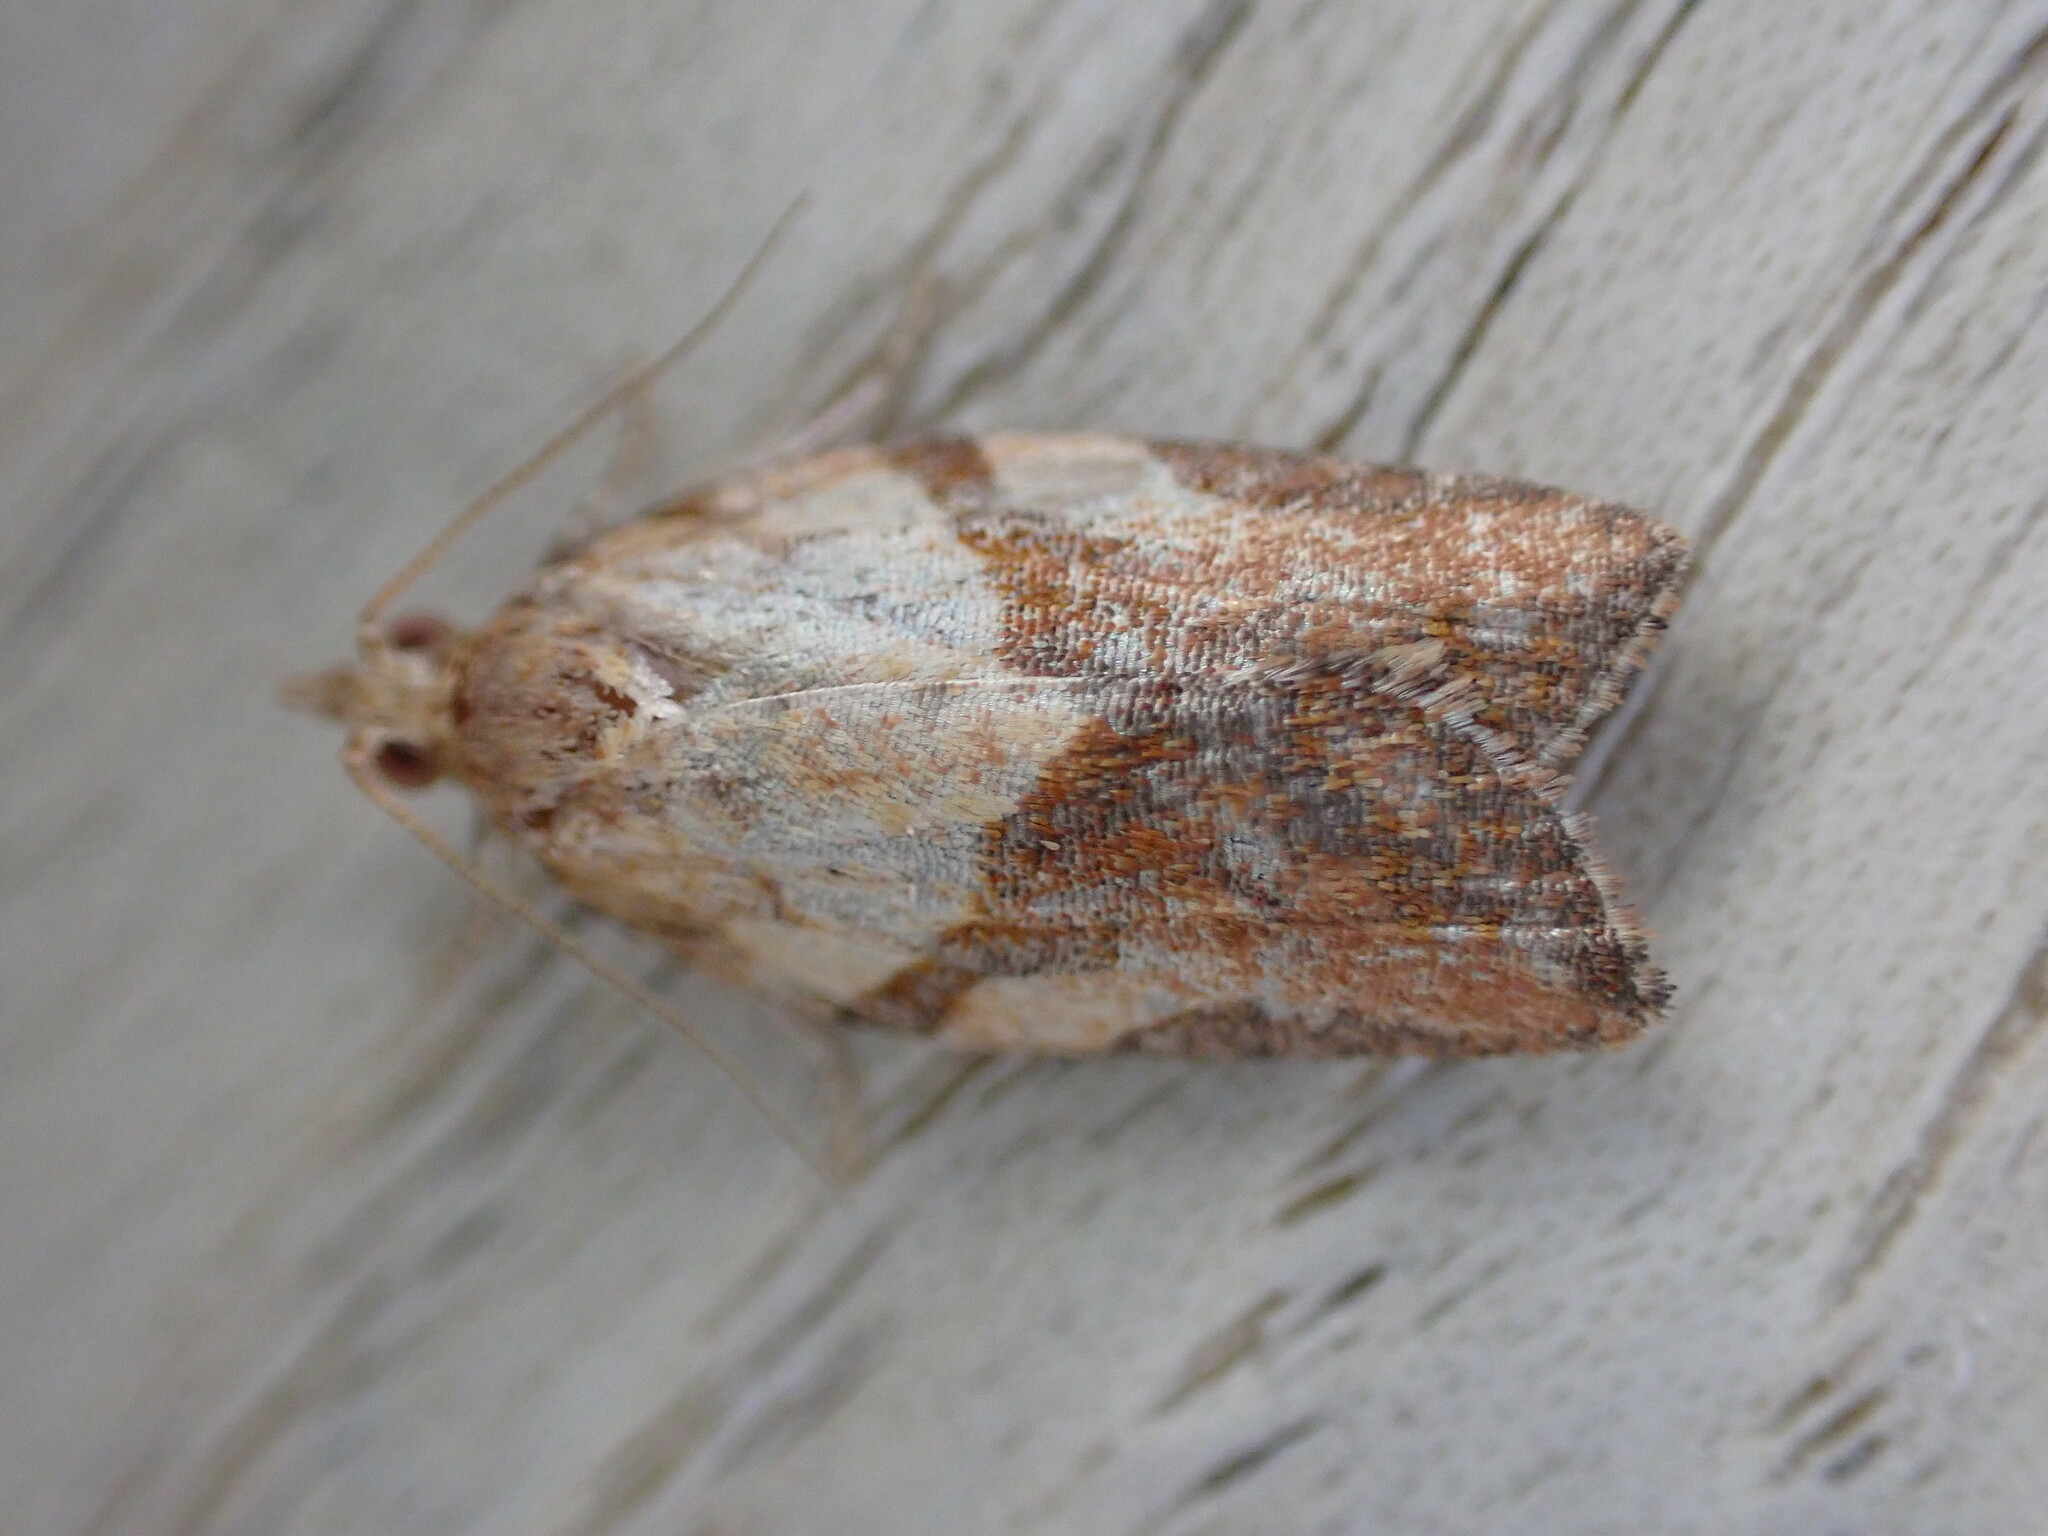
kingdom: Animalia
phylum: Arthropoda
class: Insecta
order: Lepidoptera
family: Tortricidae
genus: Epiphyas
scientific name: Epiphyas postvittana
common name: Light brown apple moth
